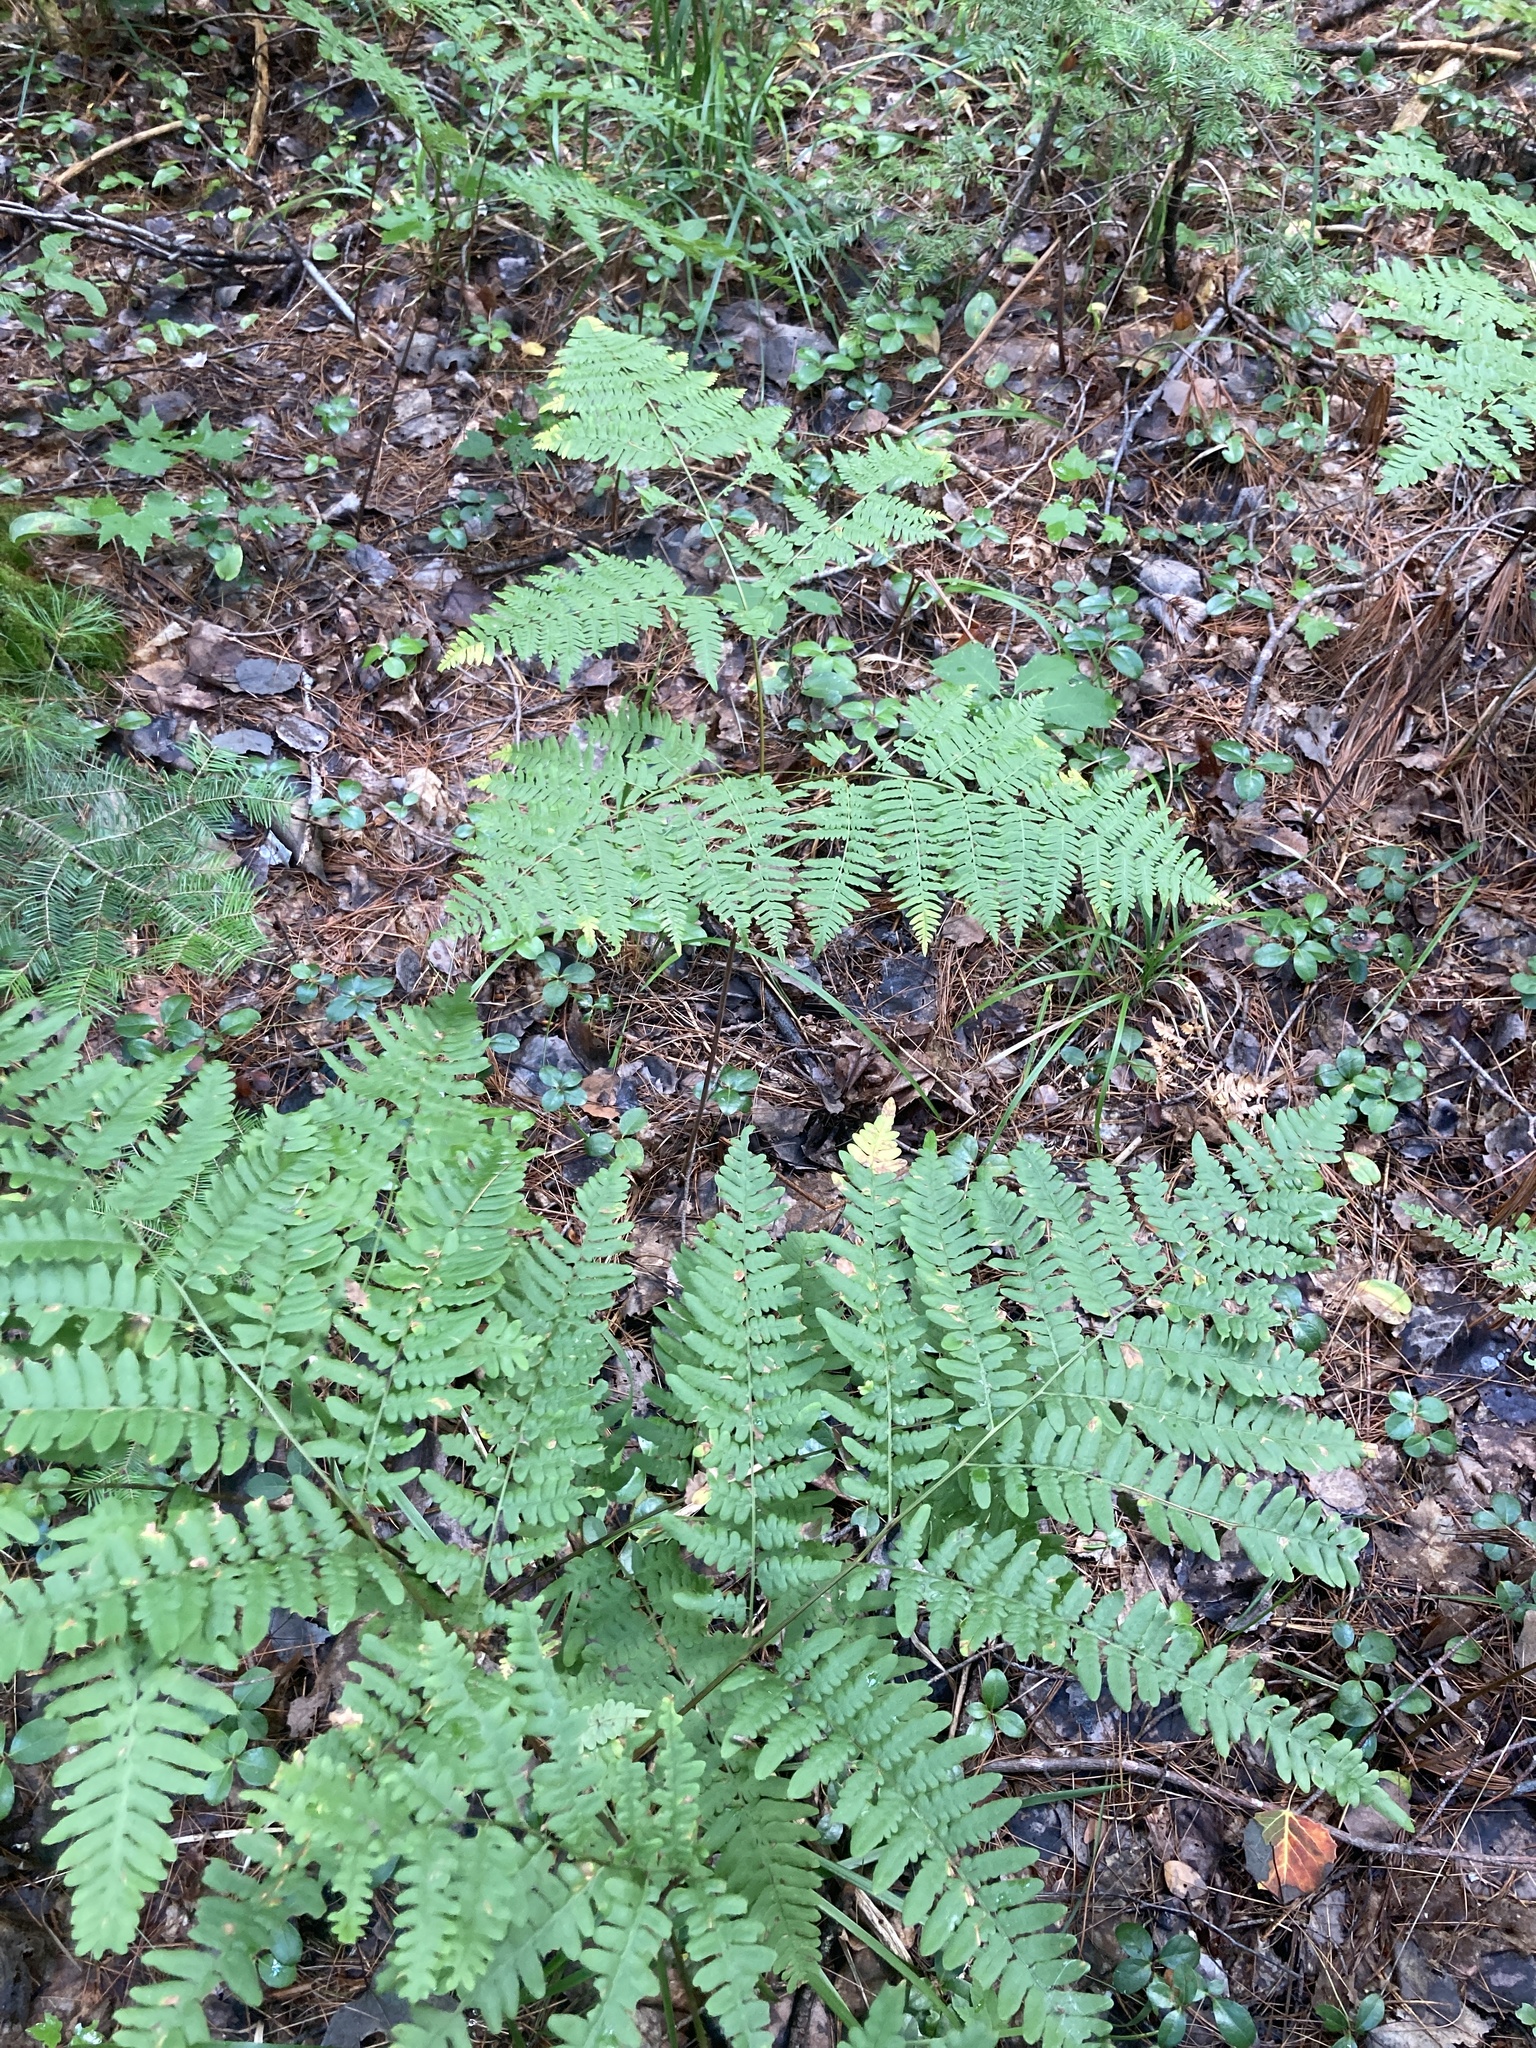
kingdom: Plantae
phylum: Tracheophyta
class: Polypodiopsida
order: Polypodiales
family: Dennstaedtiaceae
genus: Pteridium
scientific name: Pteridium aquilinum
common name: Bracken
